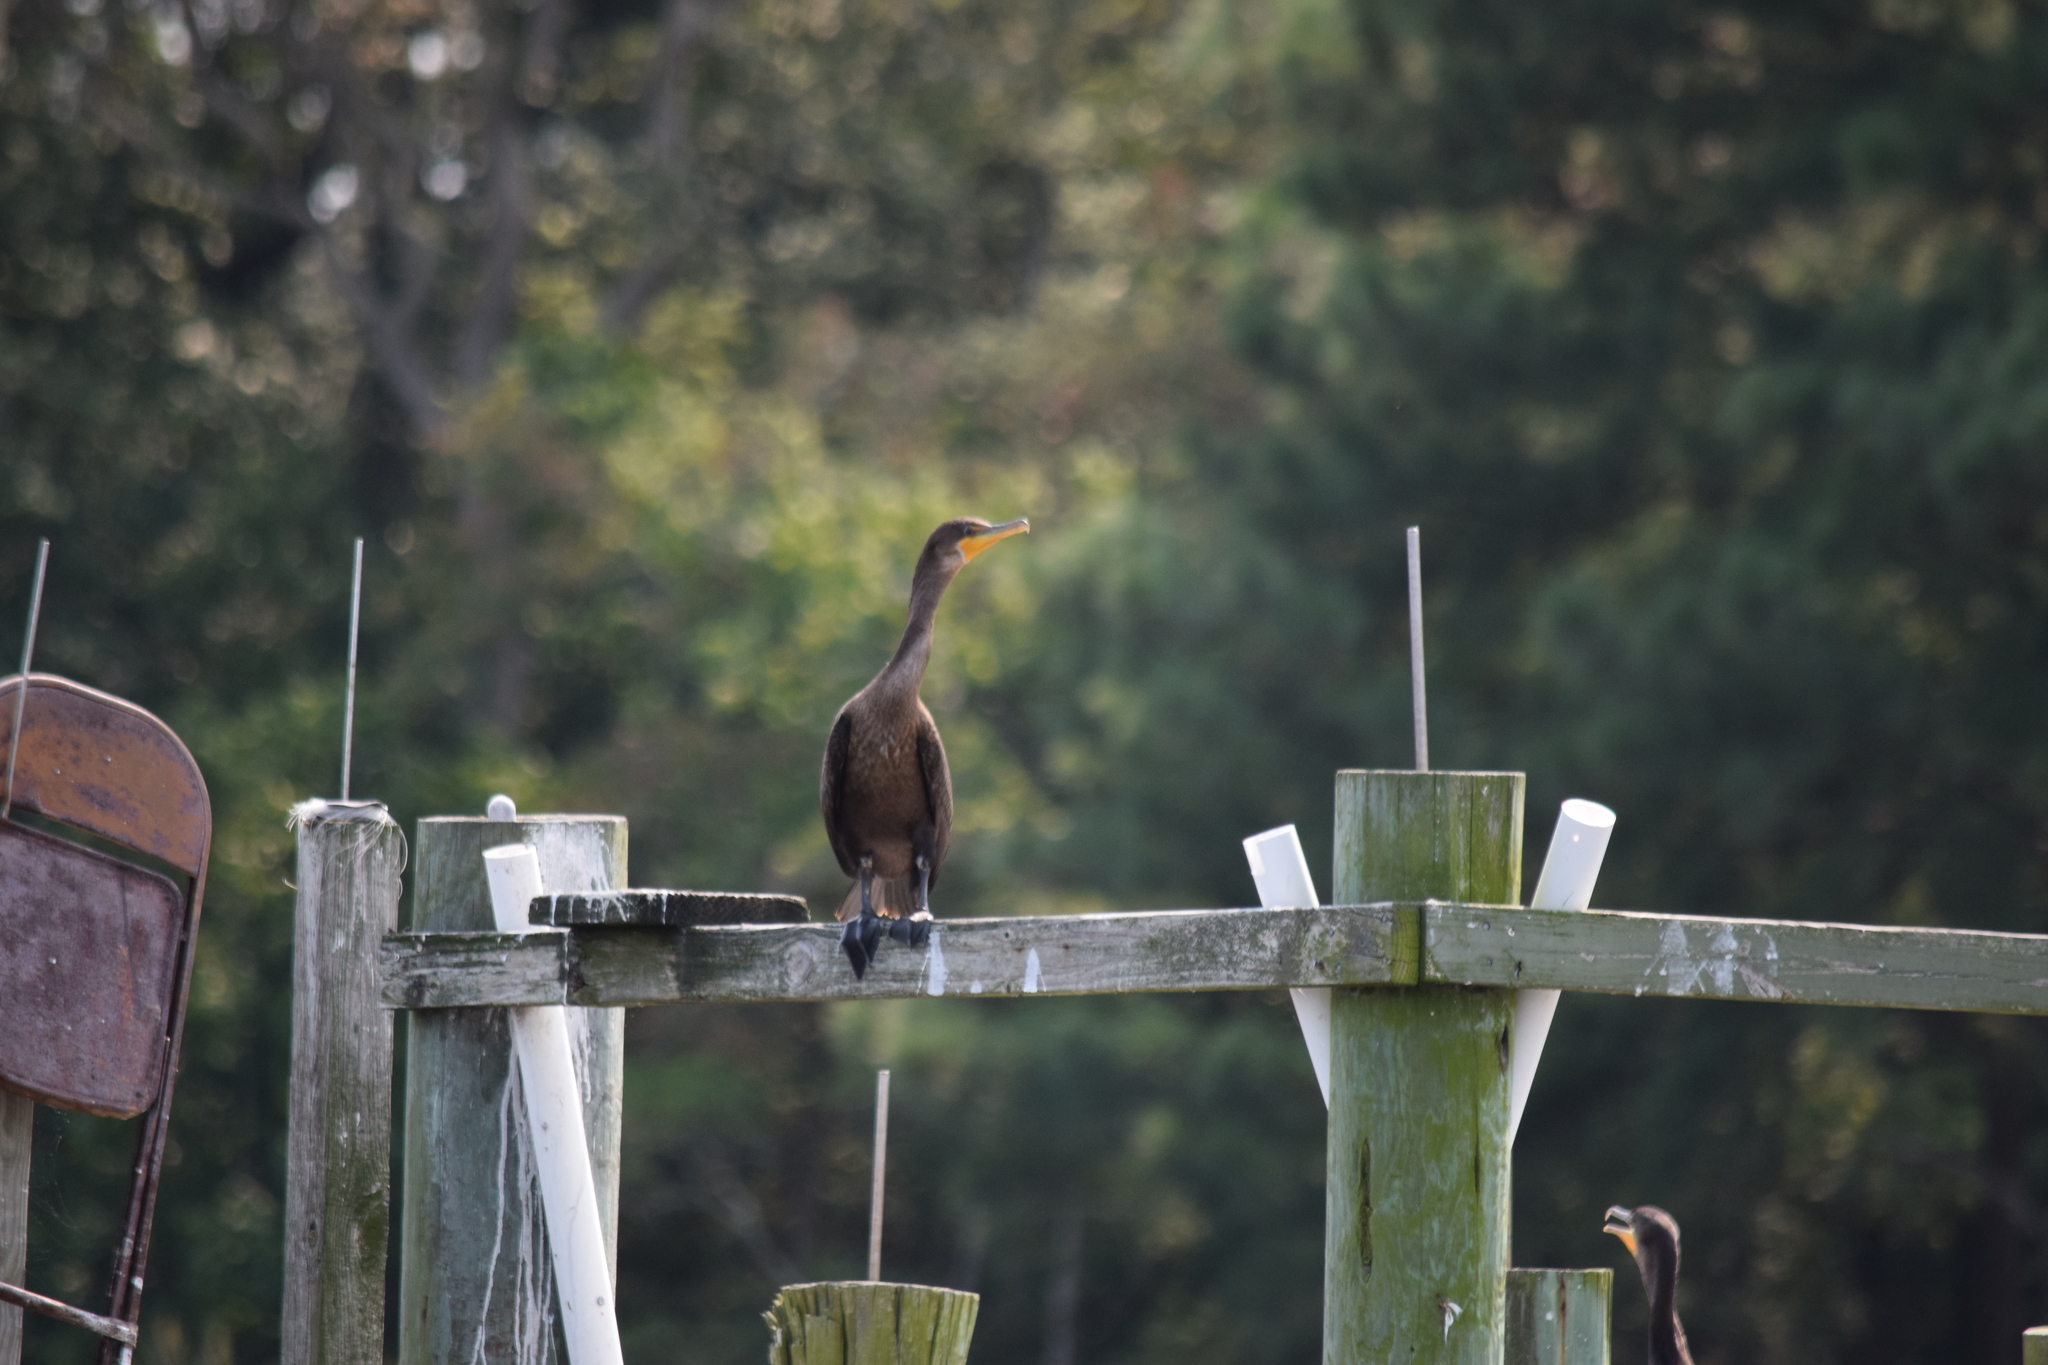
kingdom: Animalia
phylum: Chordata
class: Aves
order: Suliformes
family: Phalacrocoracidae
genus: Phalacrocorax
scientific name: Phalacrocorax auritus
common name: Double-crested cormorant
